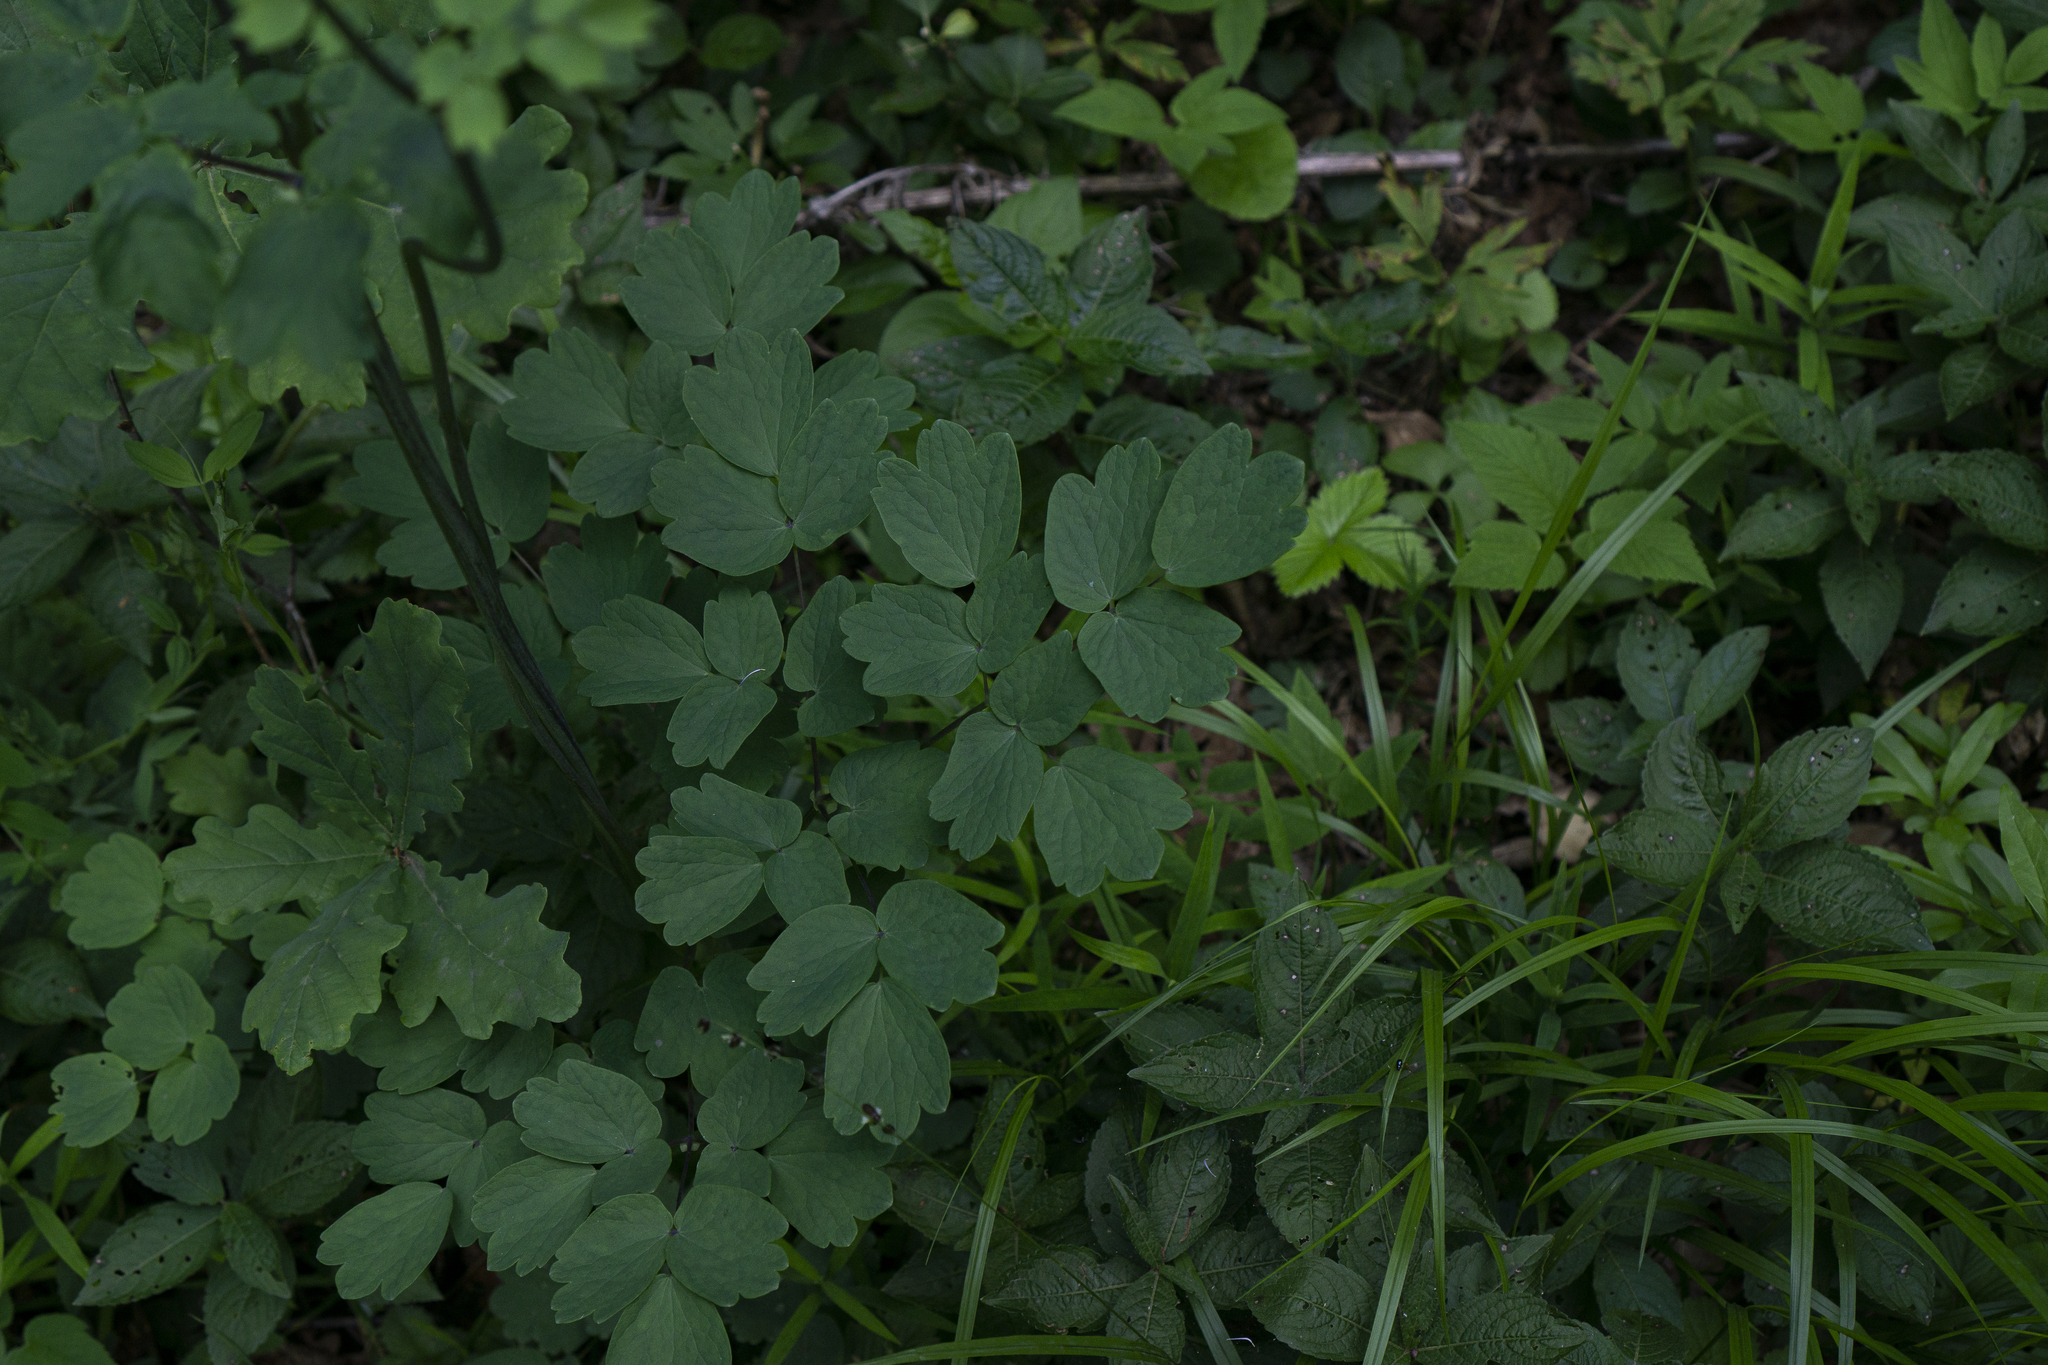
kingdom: Plantae
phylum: Tracheophyta
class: Magnoliopsida
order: Ranunculales
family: Ranunculaceae
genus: Thalictrum
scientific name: Thalictrum aquilegiifolium
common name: French meadow-rue
